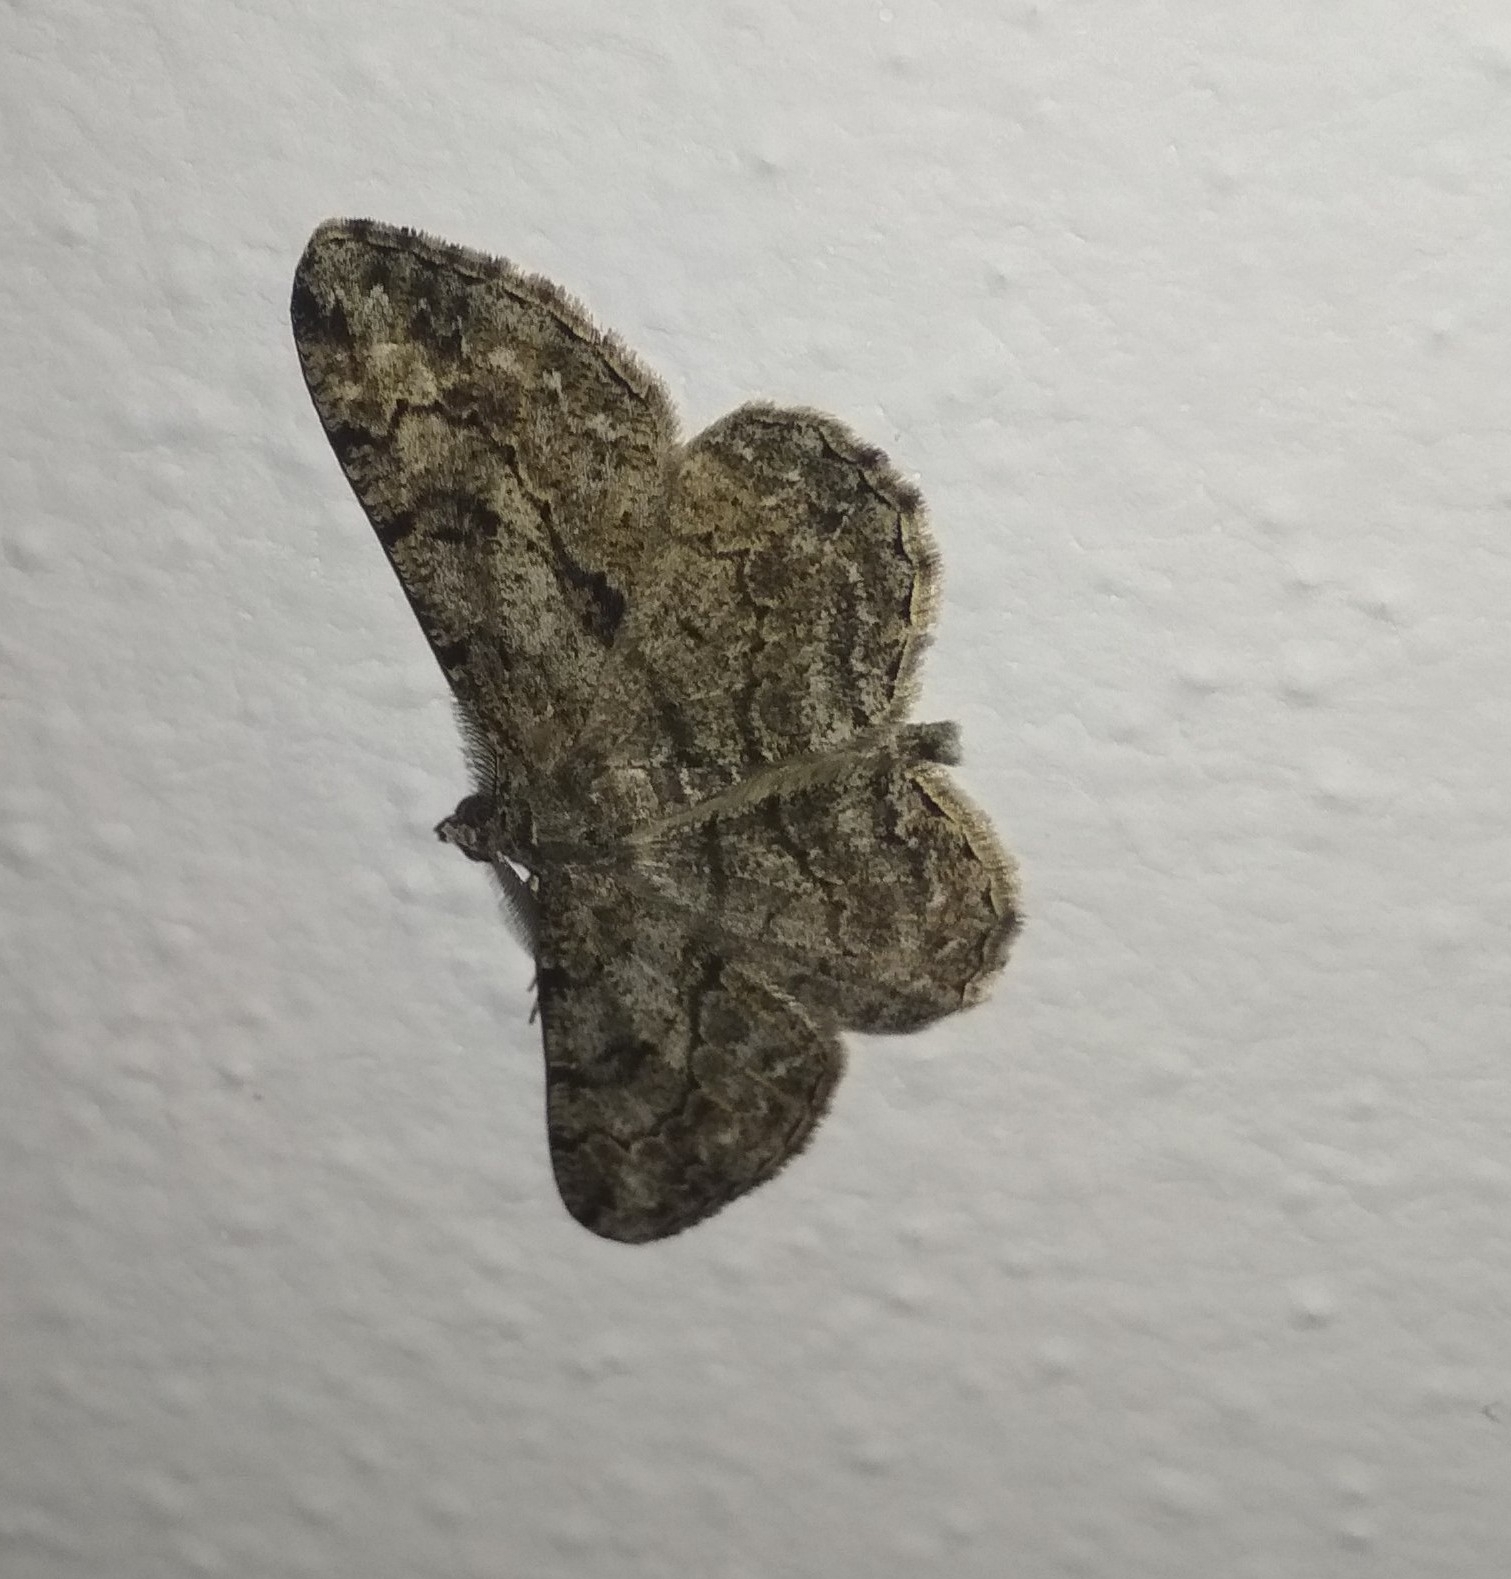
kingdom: Animalia
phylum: Arthropoda
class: Insecta
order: Lepidoptera
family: Geometridae
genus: Peribatodes
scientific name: Peribatodes rhomboidaria
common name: Willow beauty
